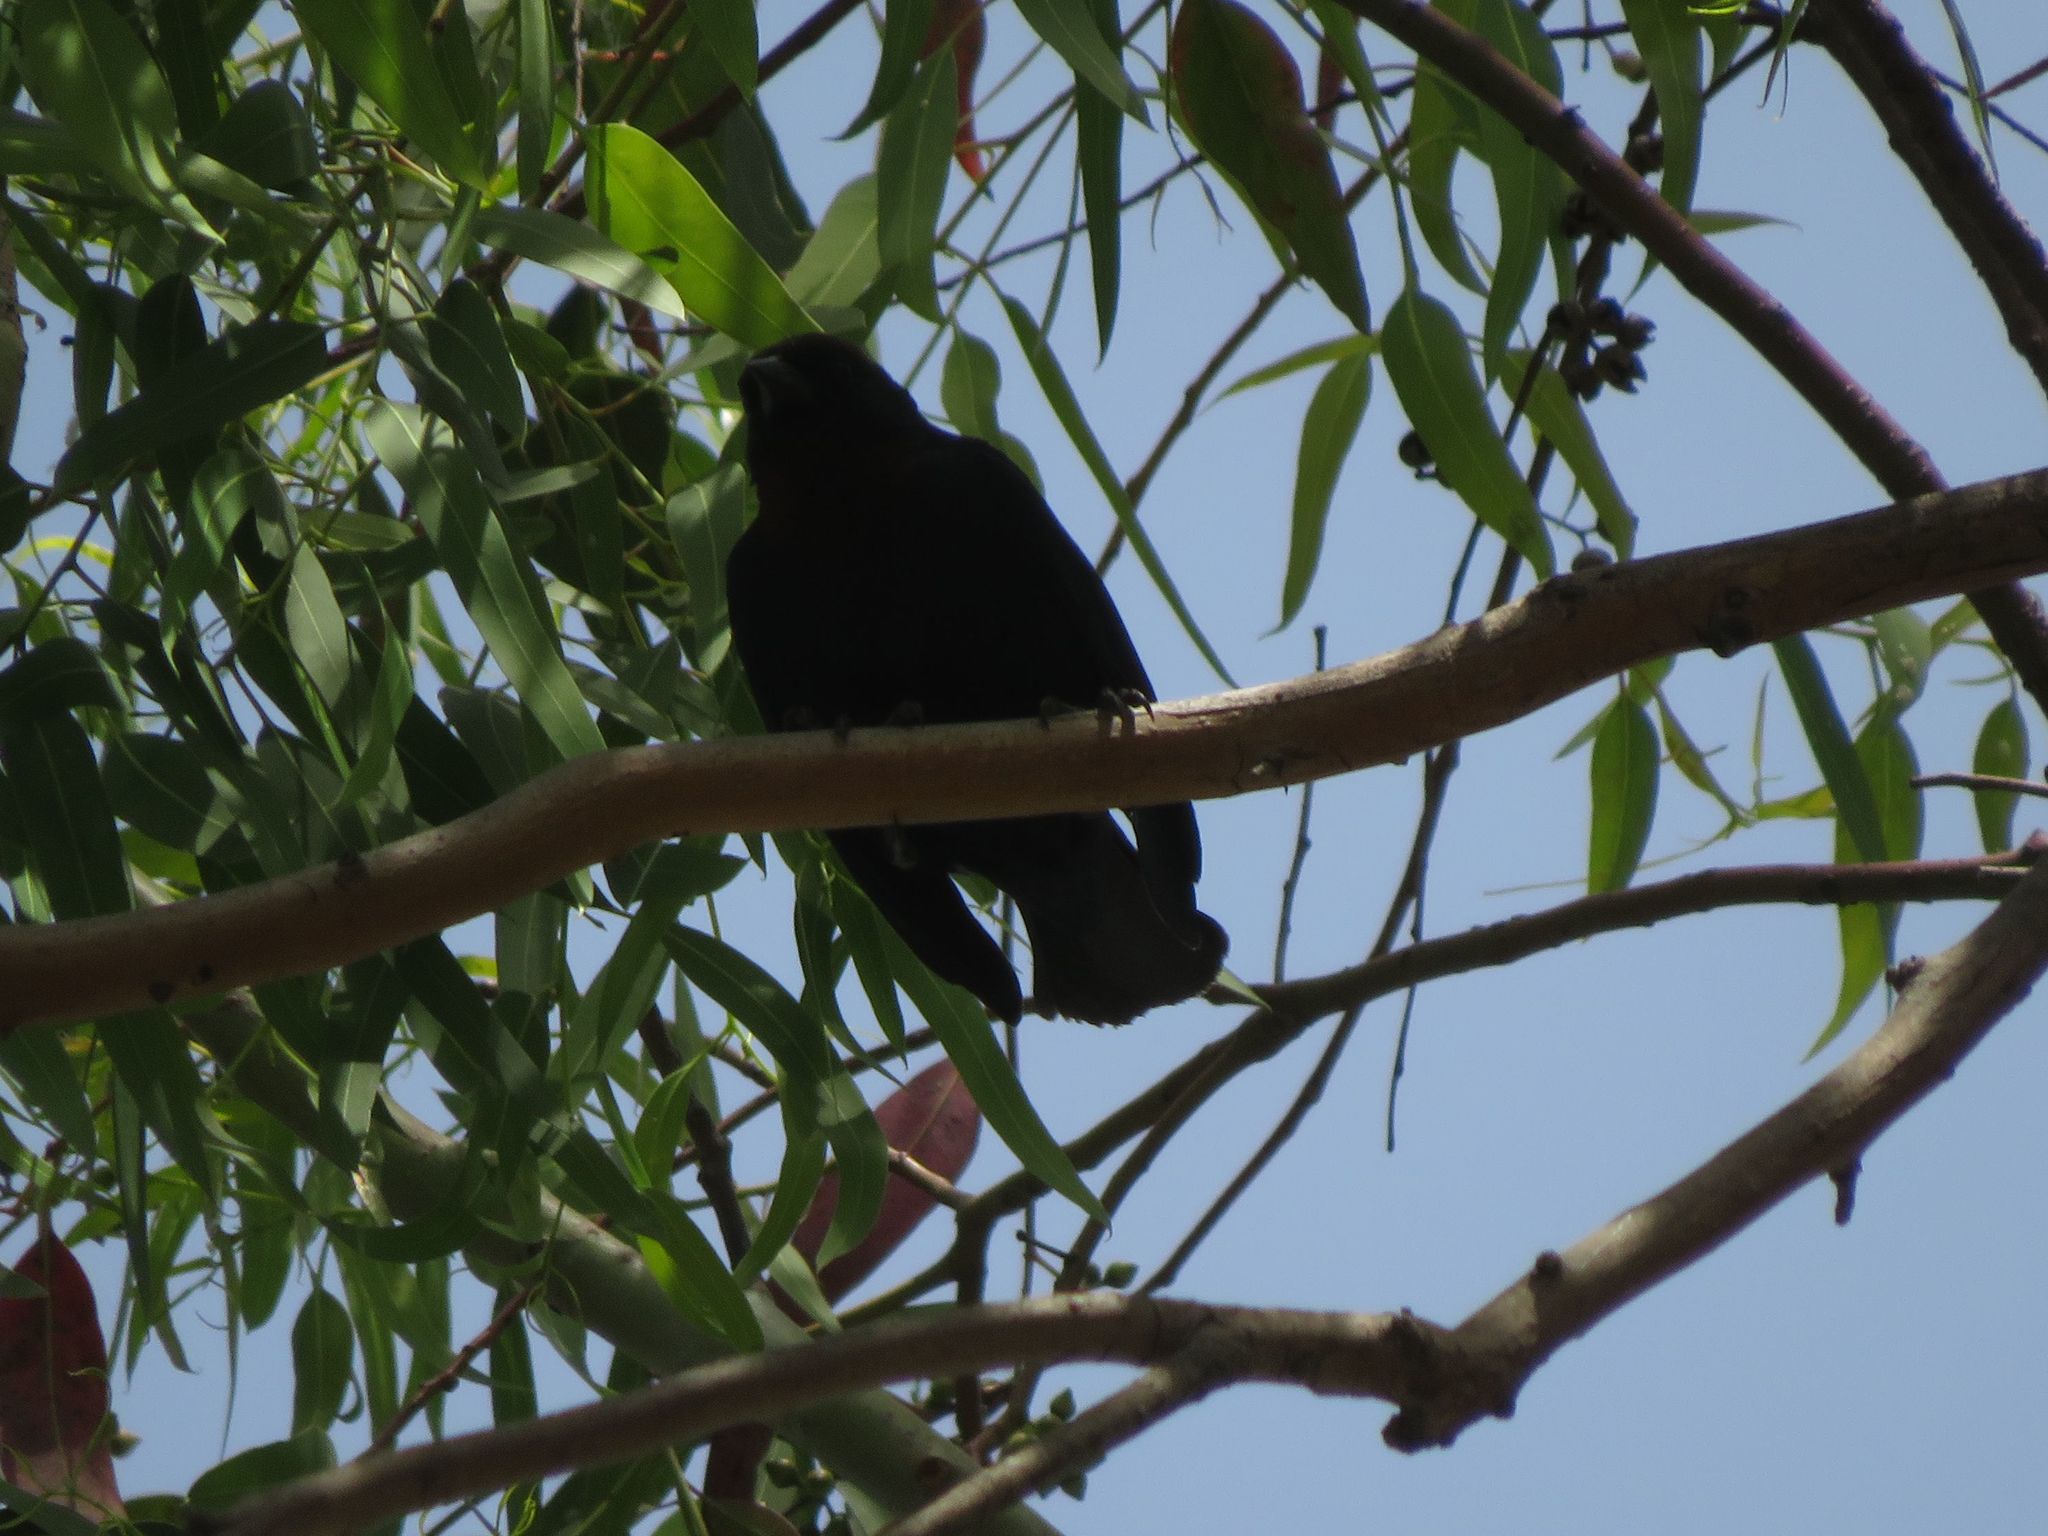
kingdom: Animalia
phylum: Chordata
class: Aves
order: Passeriformes
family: Icteridae
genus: Chrysomus
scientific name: Chrysomus ruficapillus
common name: Chestnut-capped blackbird
